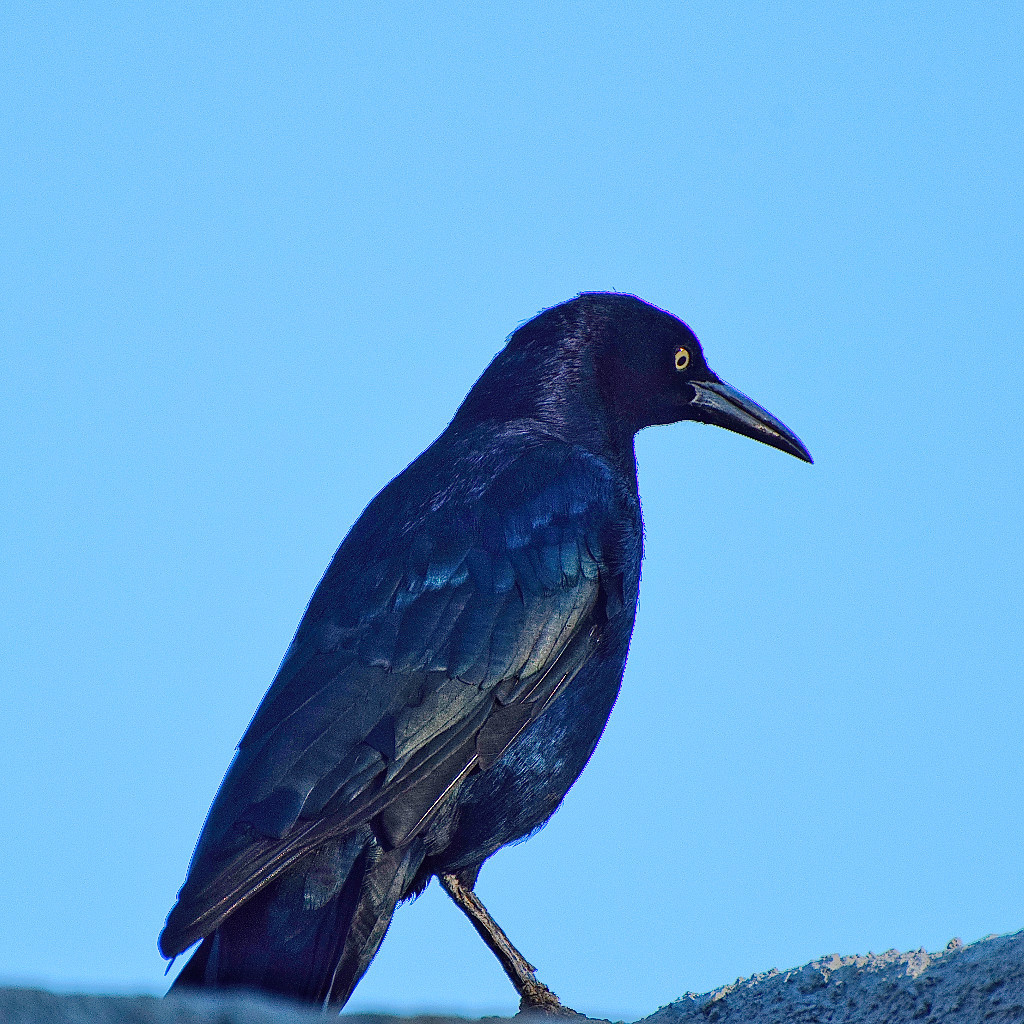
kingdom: Animalia
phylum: Chordata
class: Aves
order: Passeriformes
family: Icteridae
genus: Quiscalus
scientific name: Quiscalus mexicanus
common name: Great-tailed grackle
